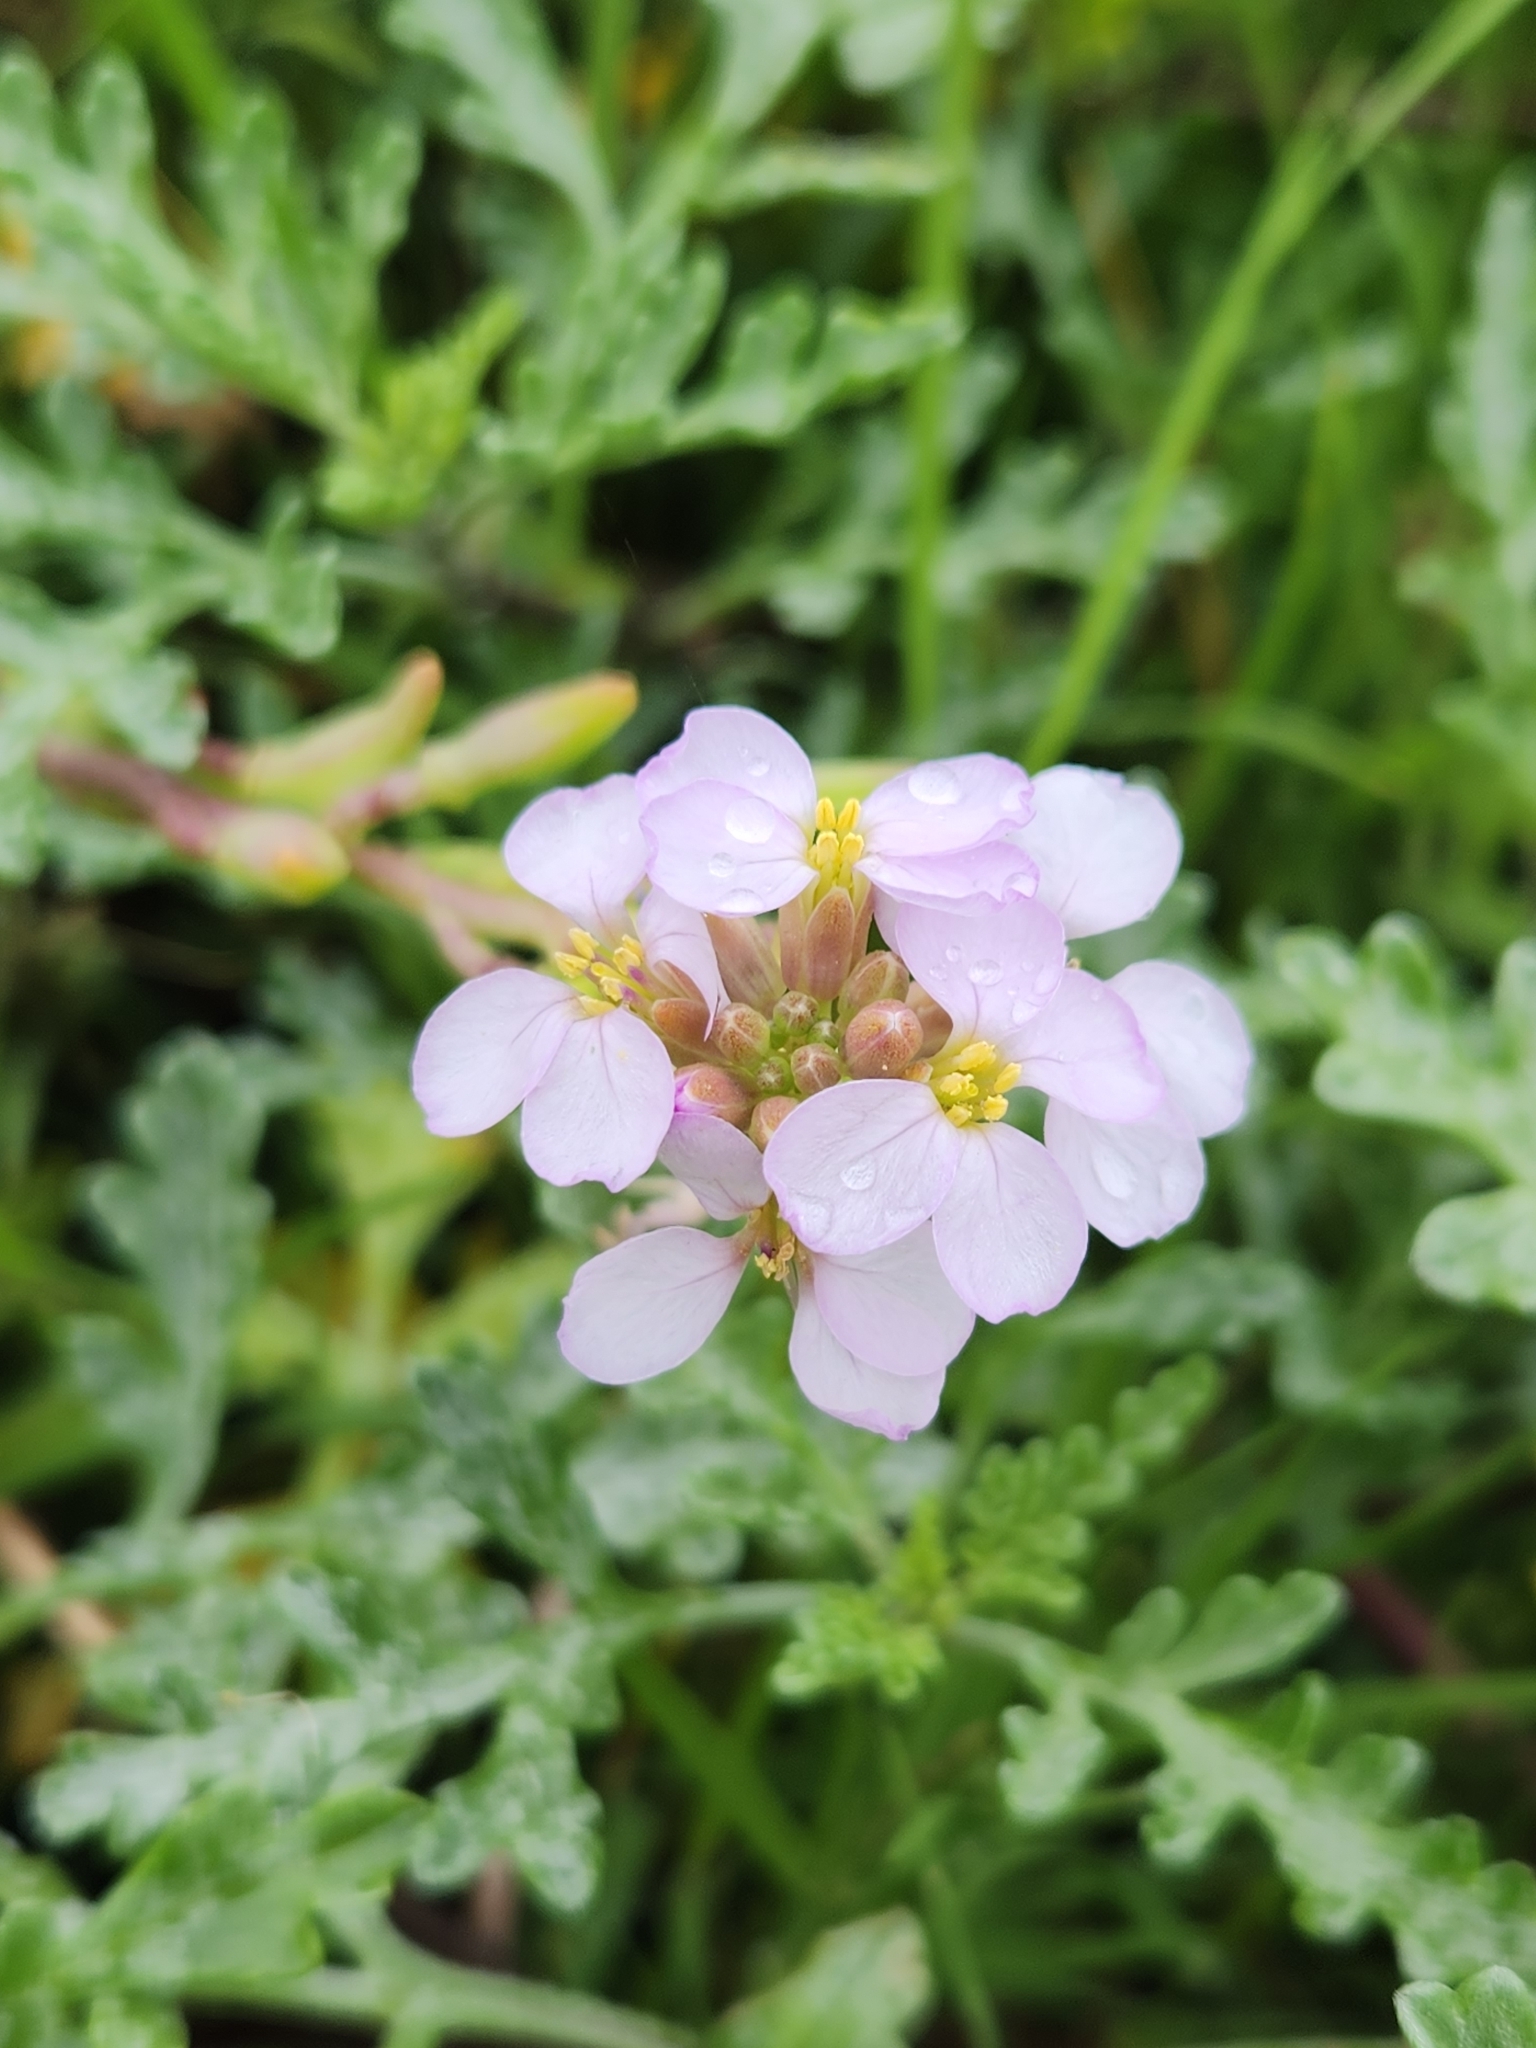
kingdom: Plantae
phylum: Tracheophyta
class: Magnoliopsida
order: Brassicales
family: Brassicaceae
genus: Cakile
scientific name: Cakile maritima
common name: Sea rocket
